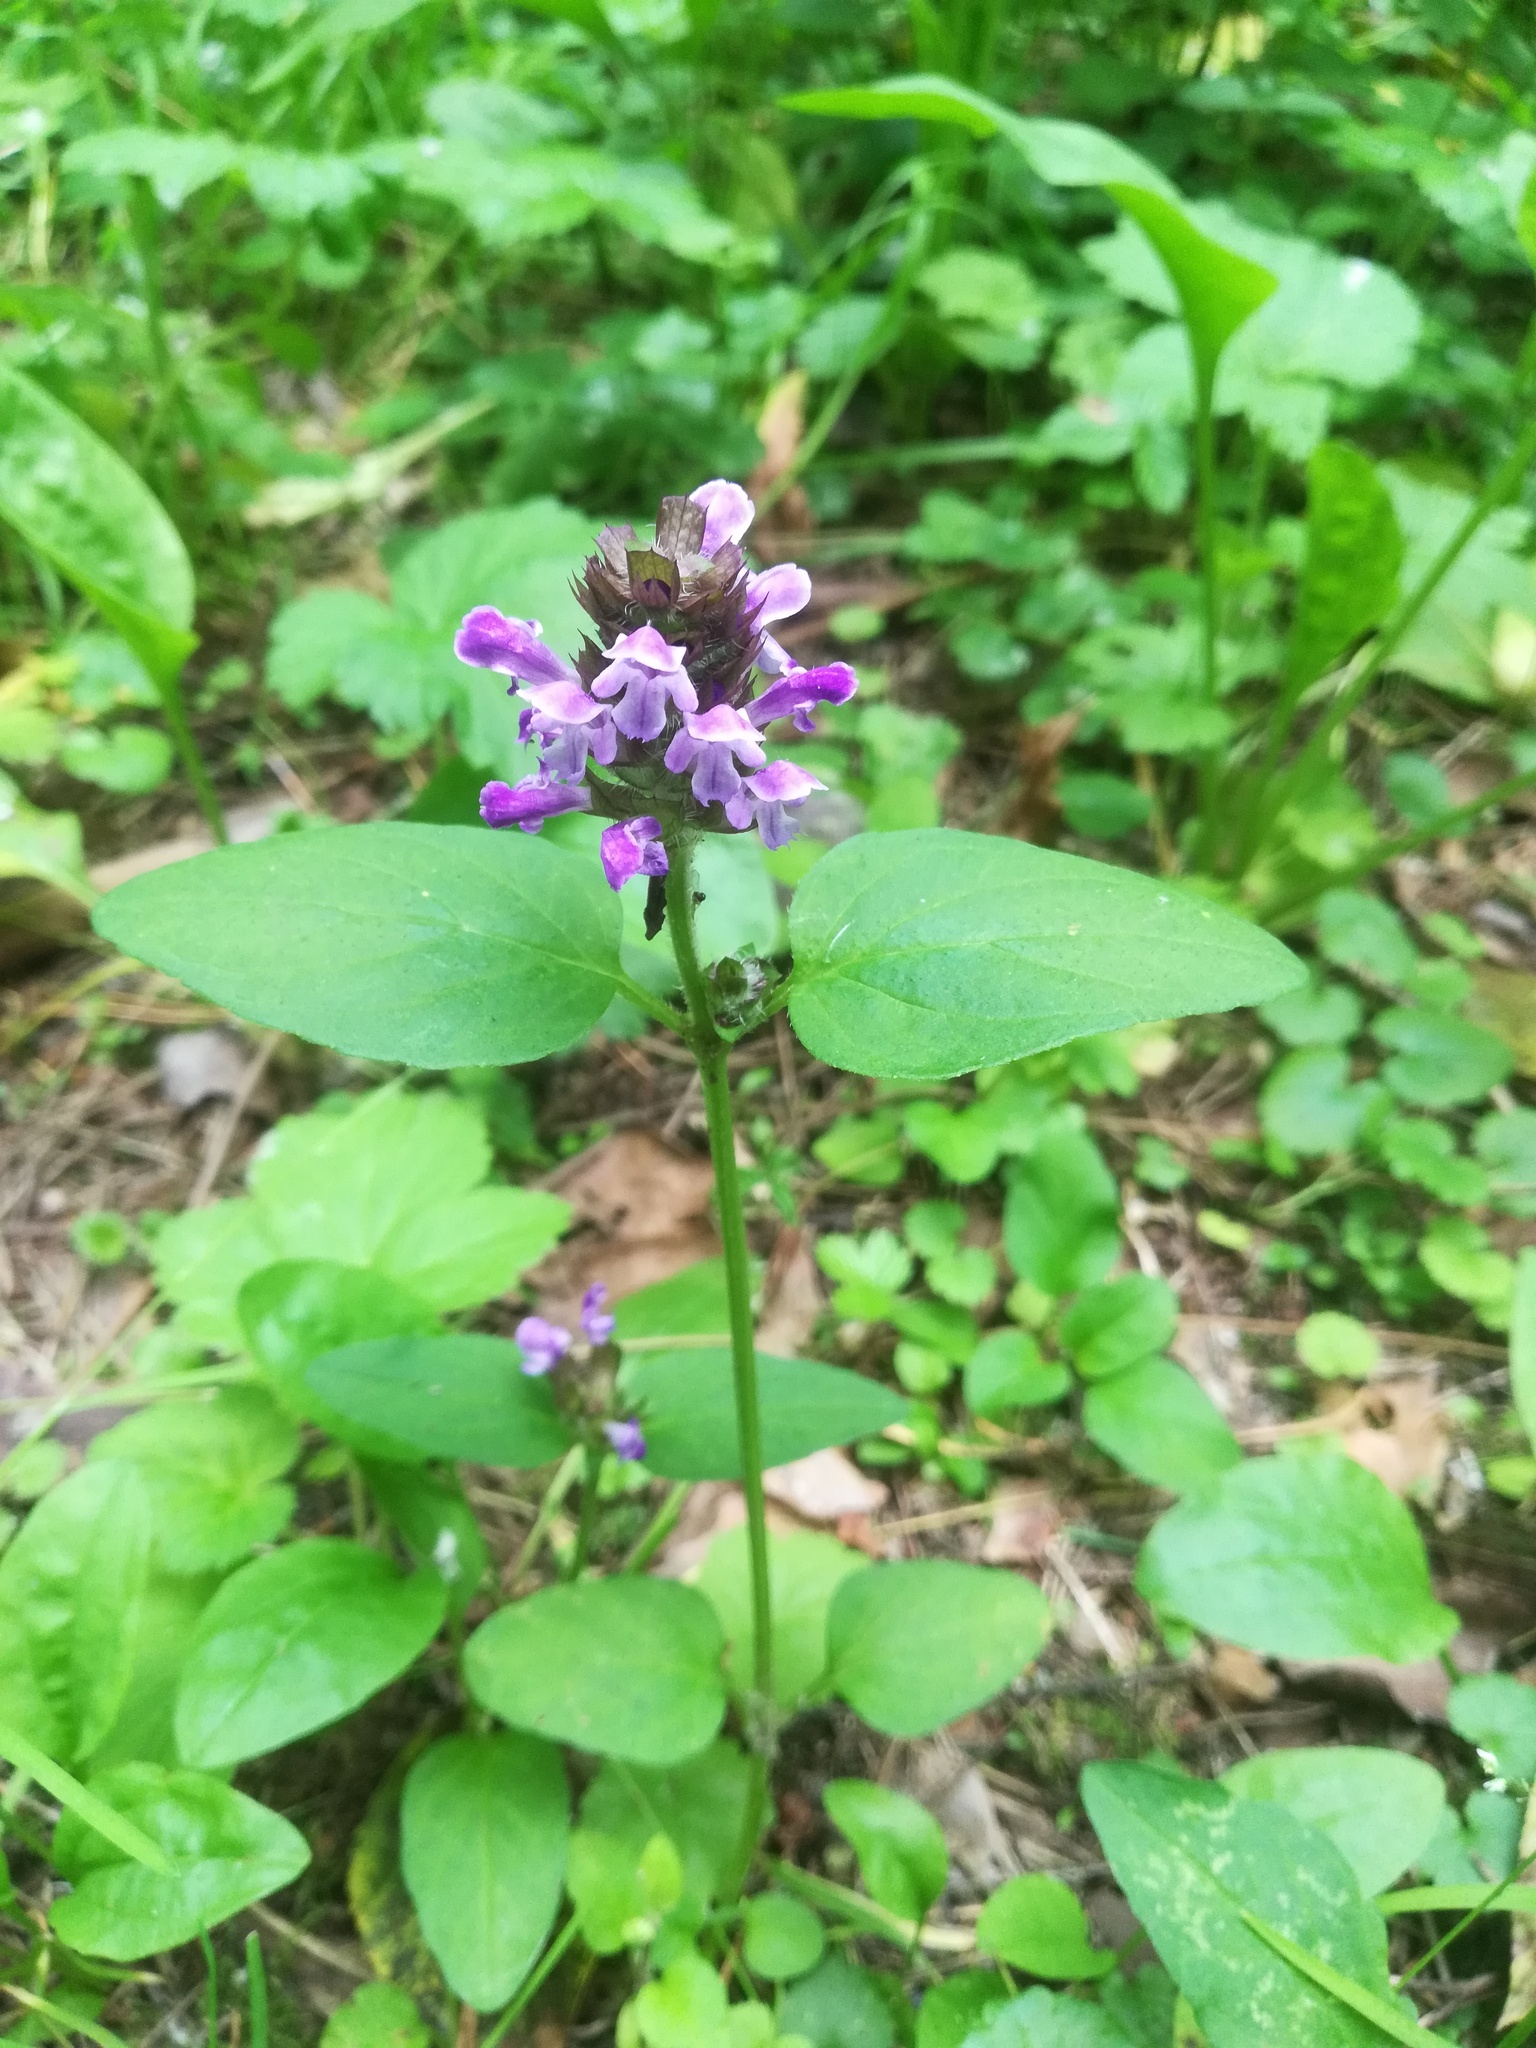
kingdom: Plantae
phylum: Tracheophyta
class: Magnoliopsida
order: Lamiales
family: Lamiaceae
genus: Prunella
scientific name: Prunella vulgaris
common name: Heal-all
